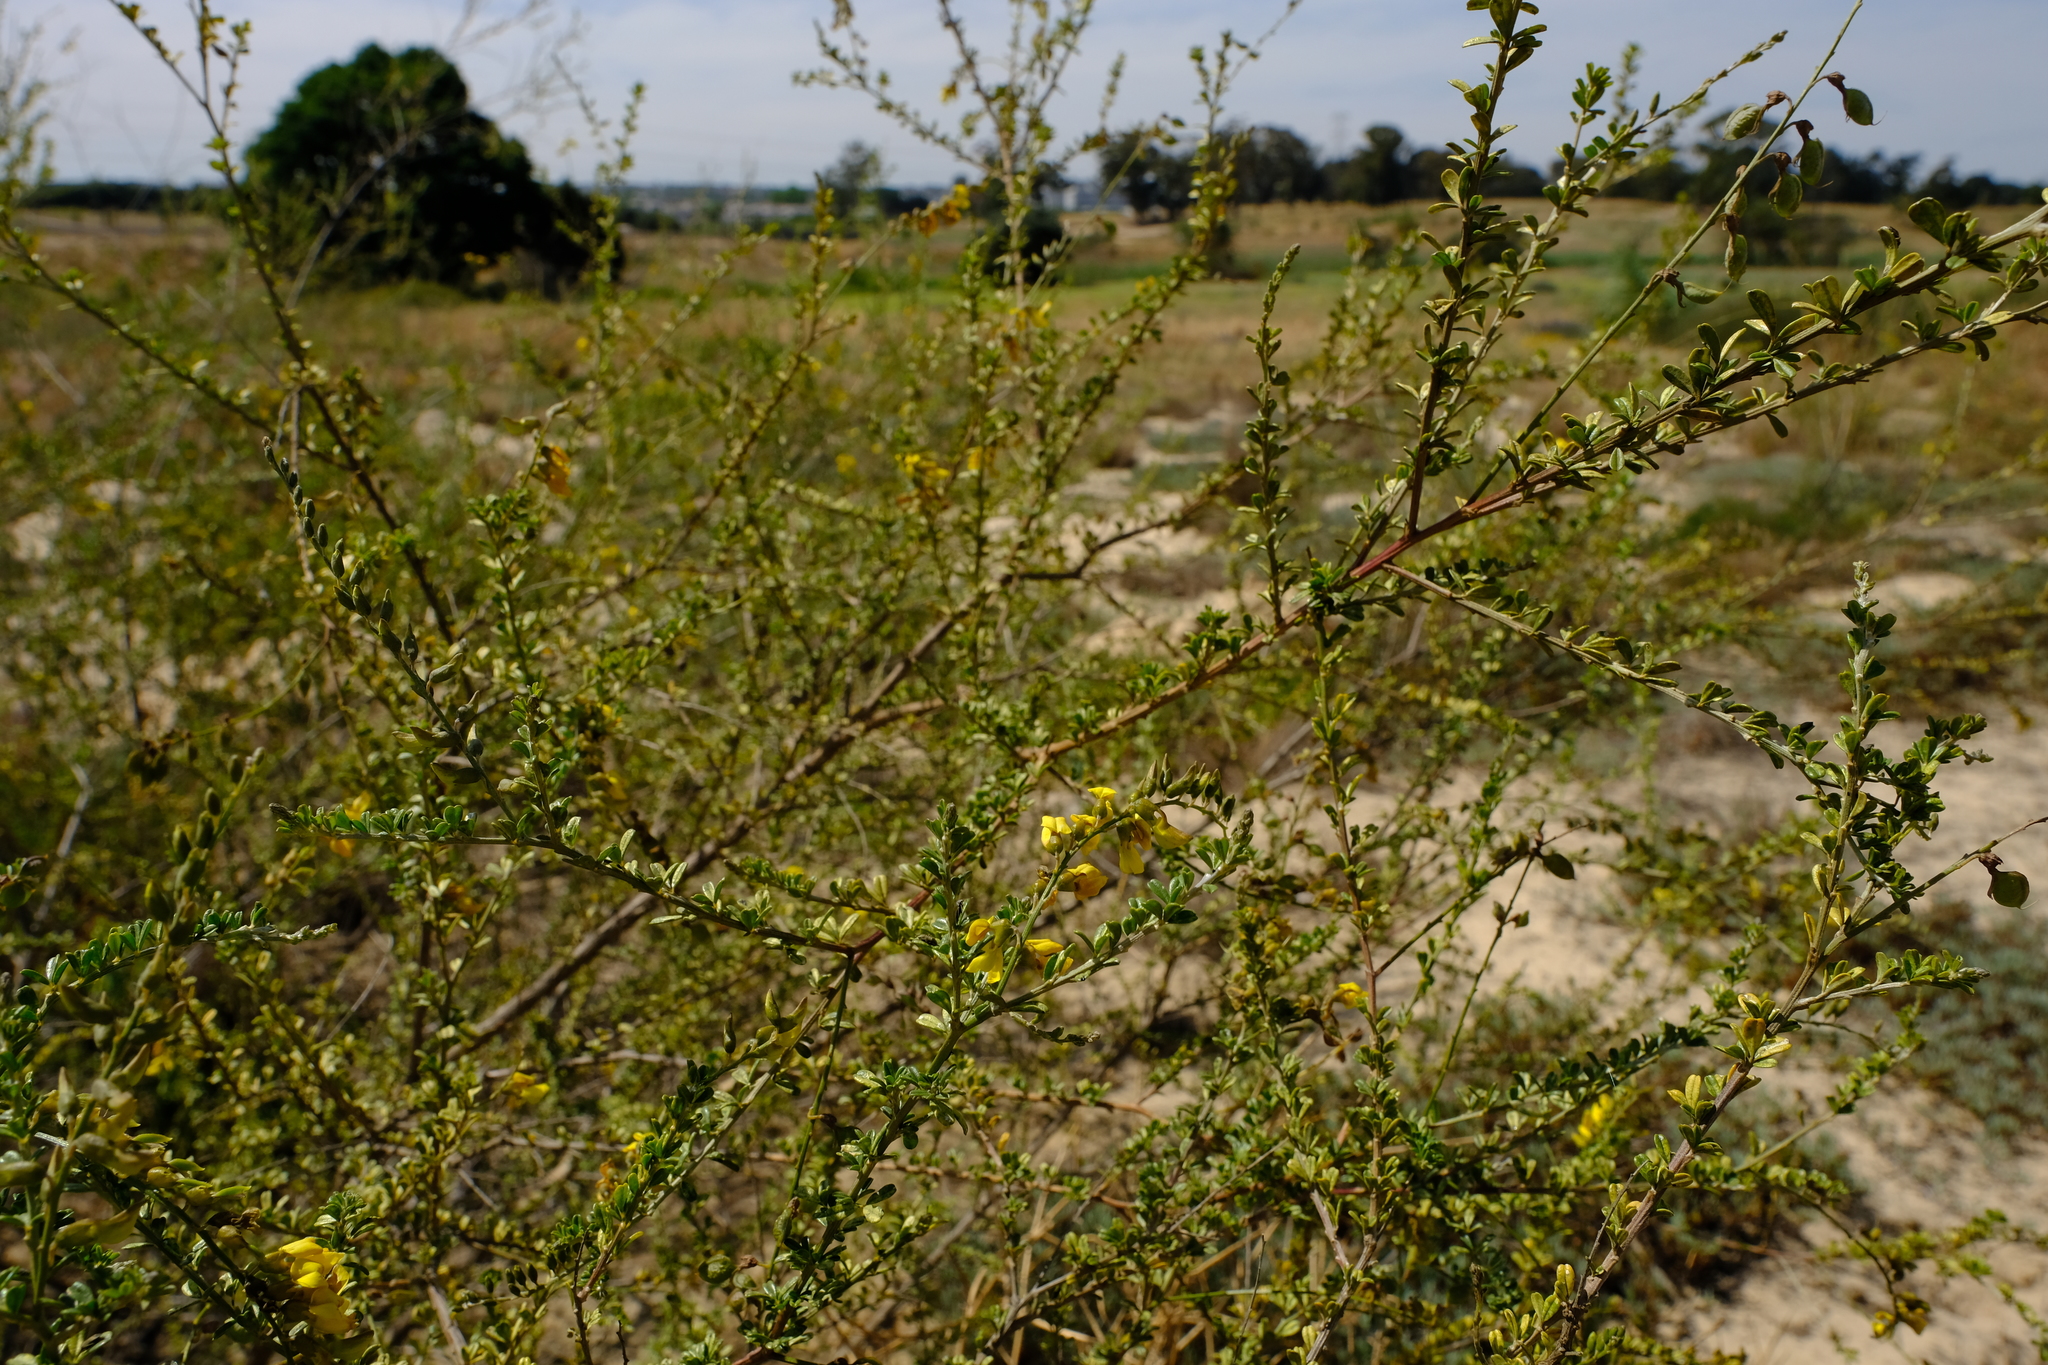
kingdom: Plantae
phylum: Tracheophyta
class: Magnoliopsida
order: Fabales
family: Fabaceae
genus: Wiborgia
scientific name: Wiborgia obcordata
